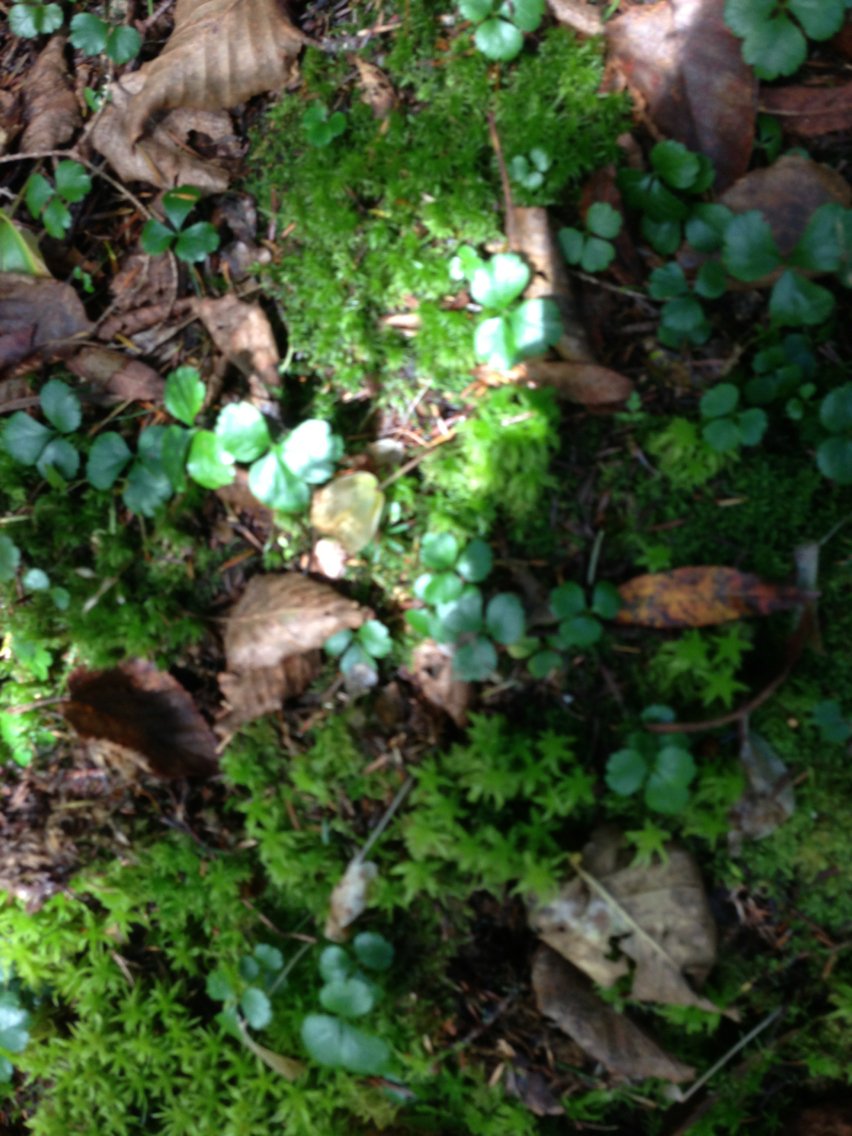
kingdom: Plantae
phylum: Tracheophyta
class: Magnoliopsida
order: Ranunculales
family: Ranunculaceae
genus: Coptis
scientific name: Coptis trifolia
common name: Canker-root
